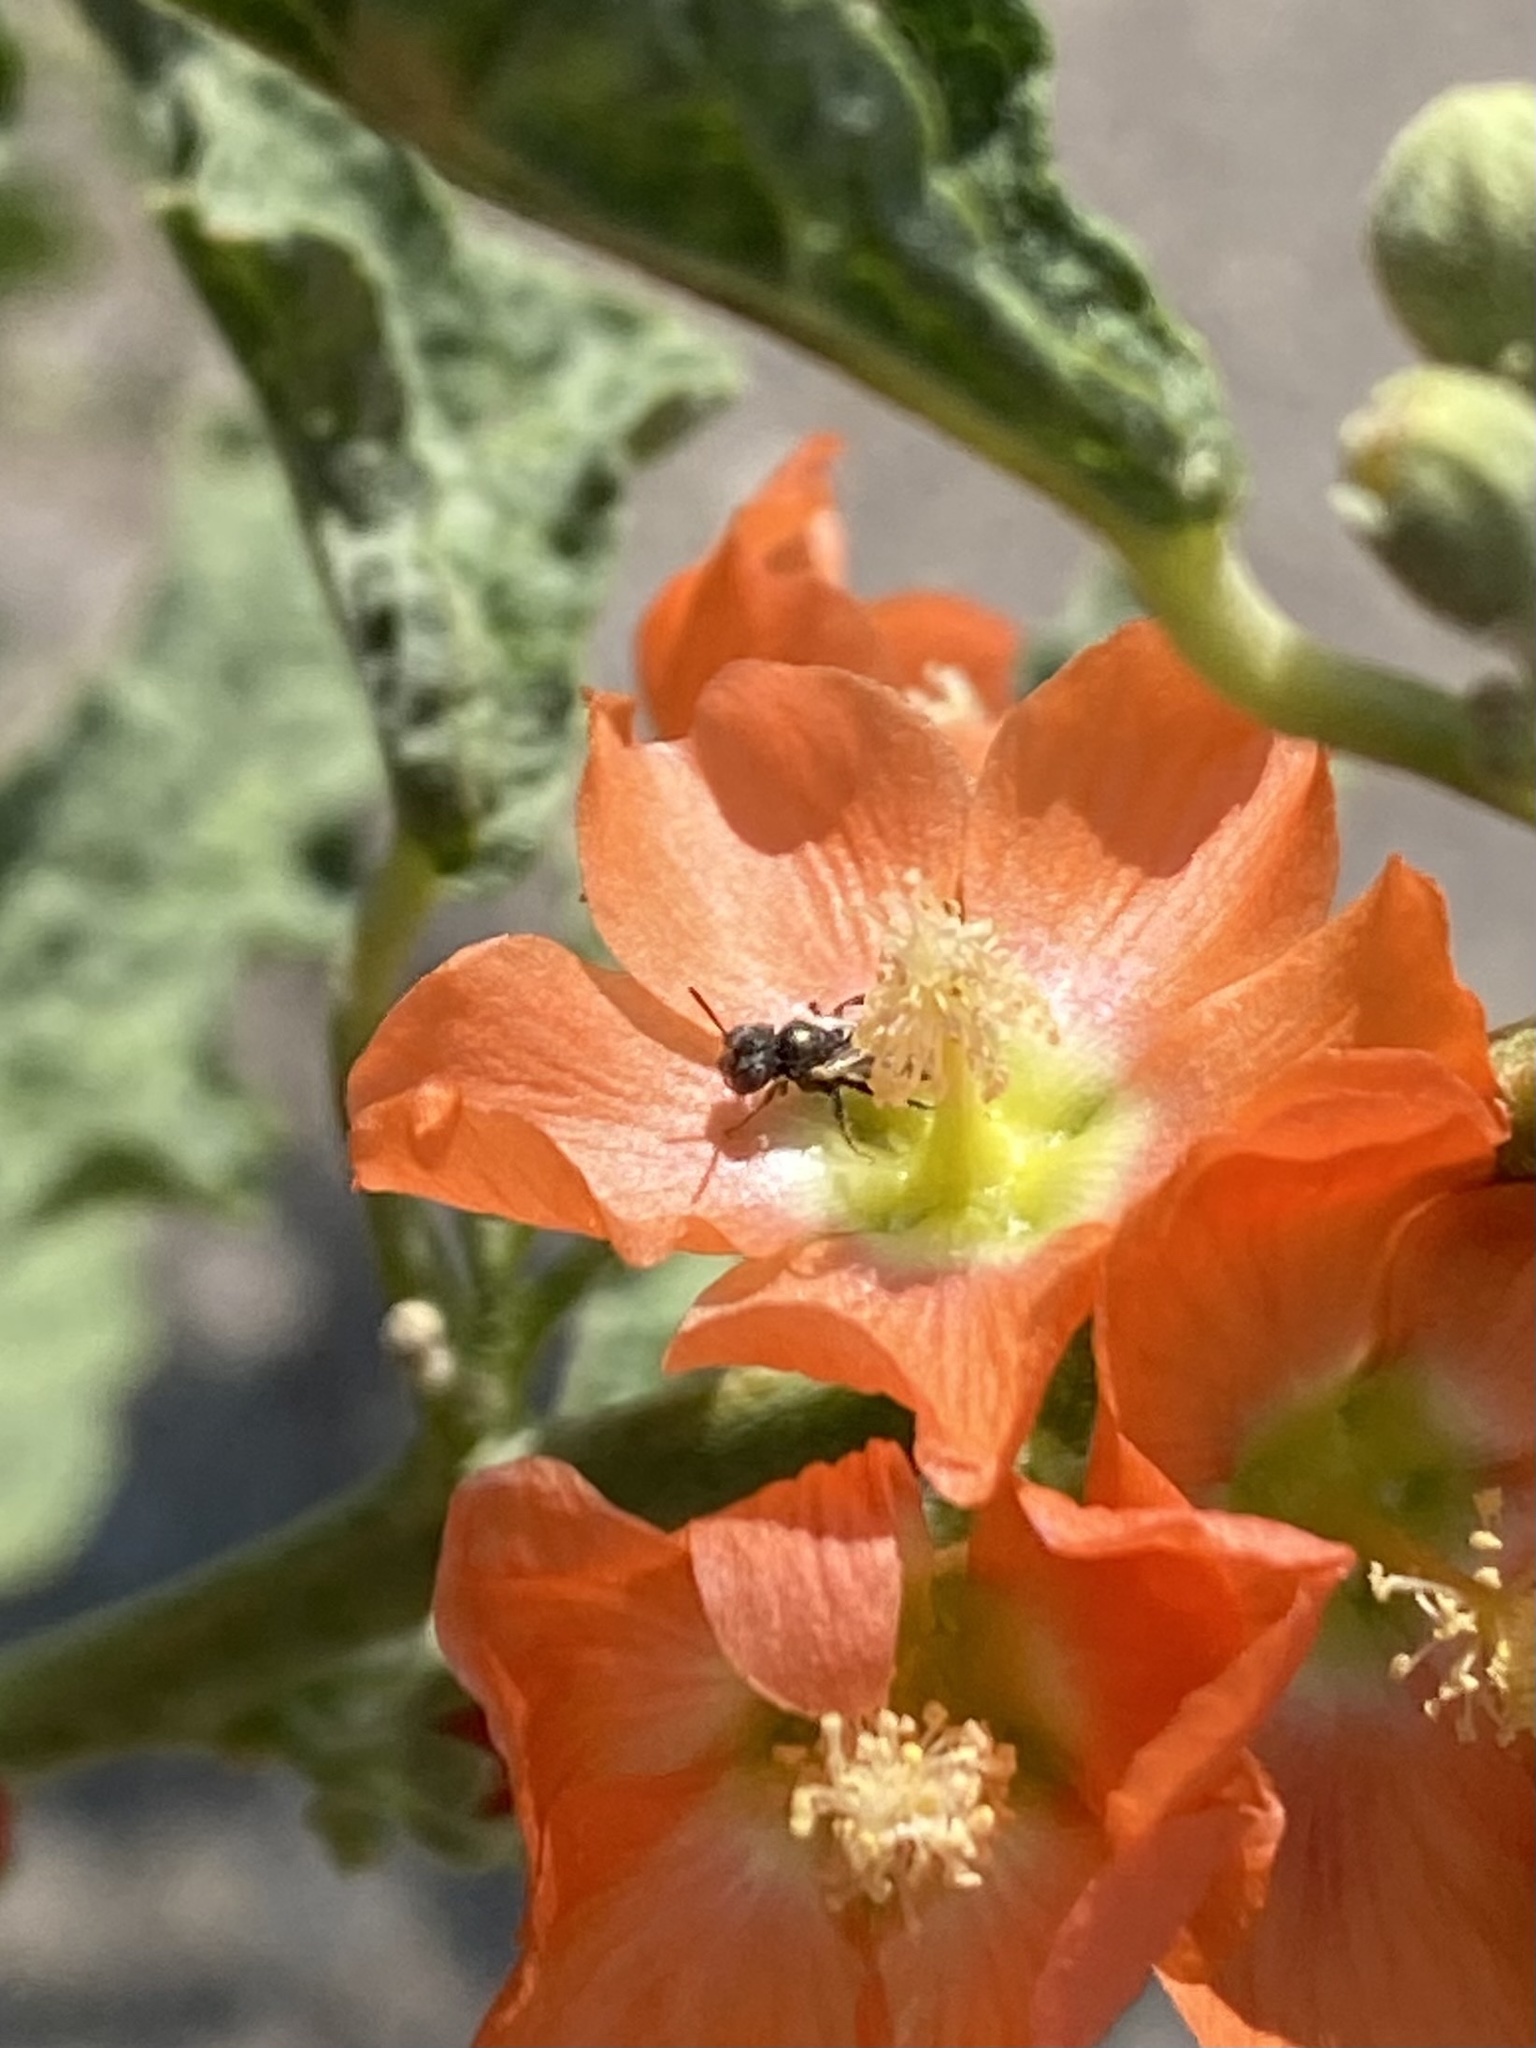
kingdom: Animalia
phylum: Arthropoda
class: Insecta
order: Hymenoptera
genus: Macroteropsis
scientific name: Macroteropsis
